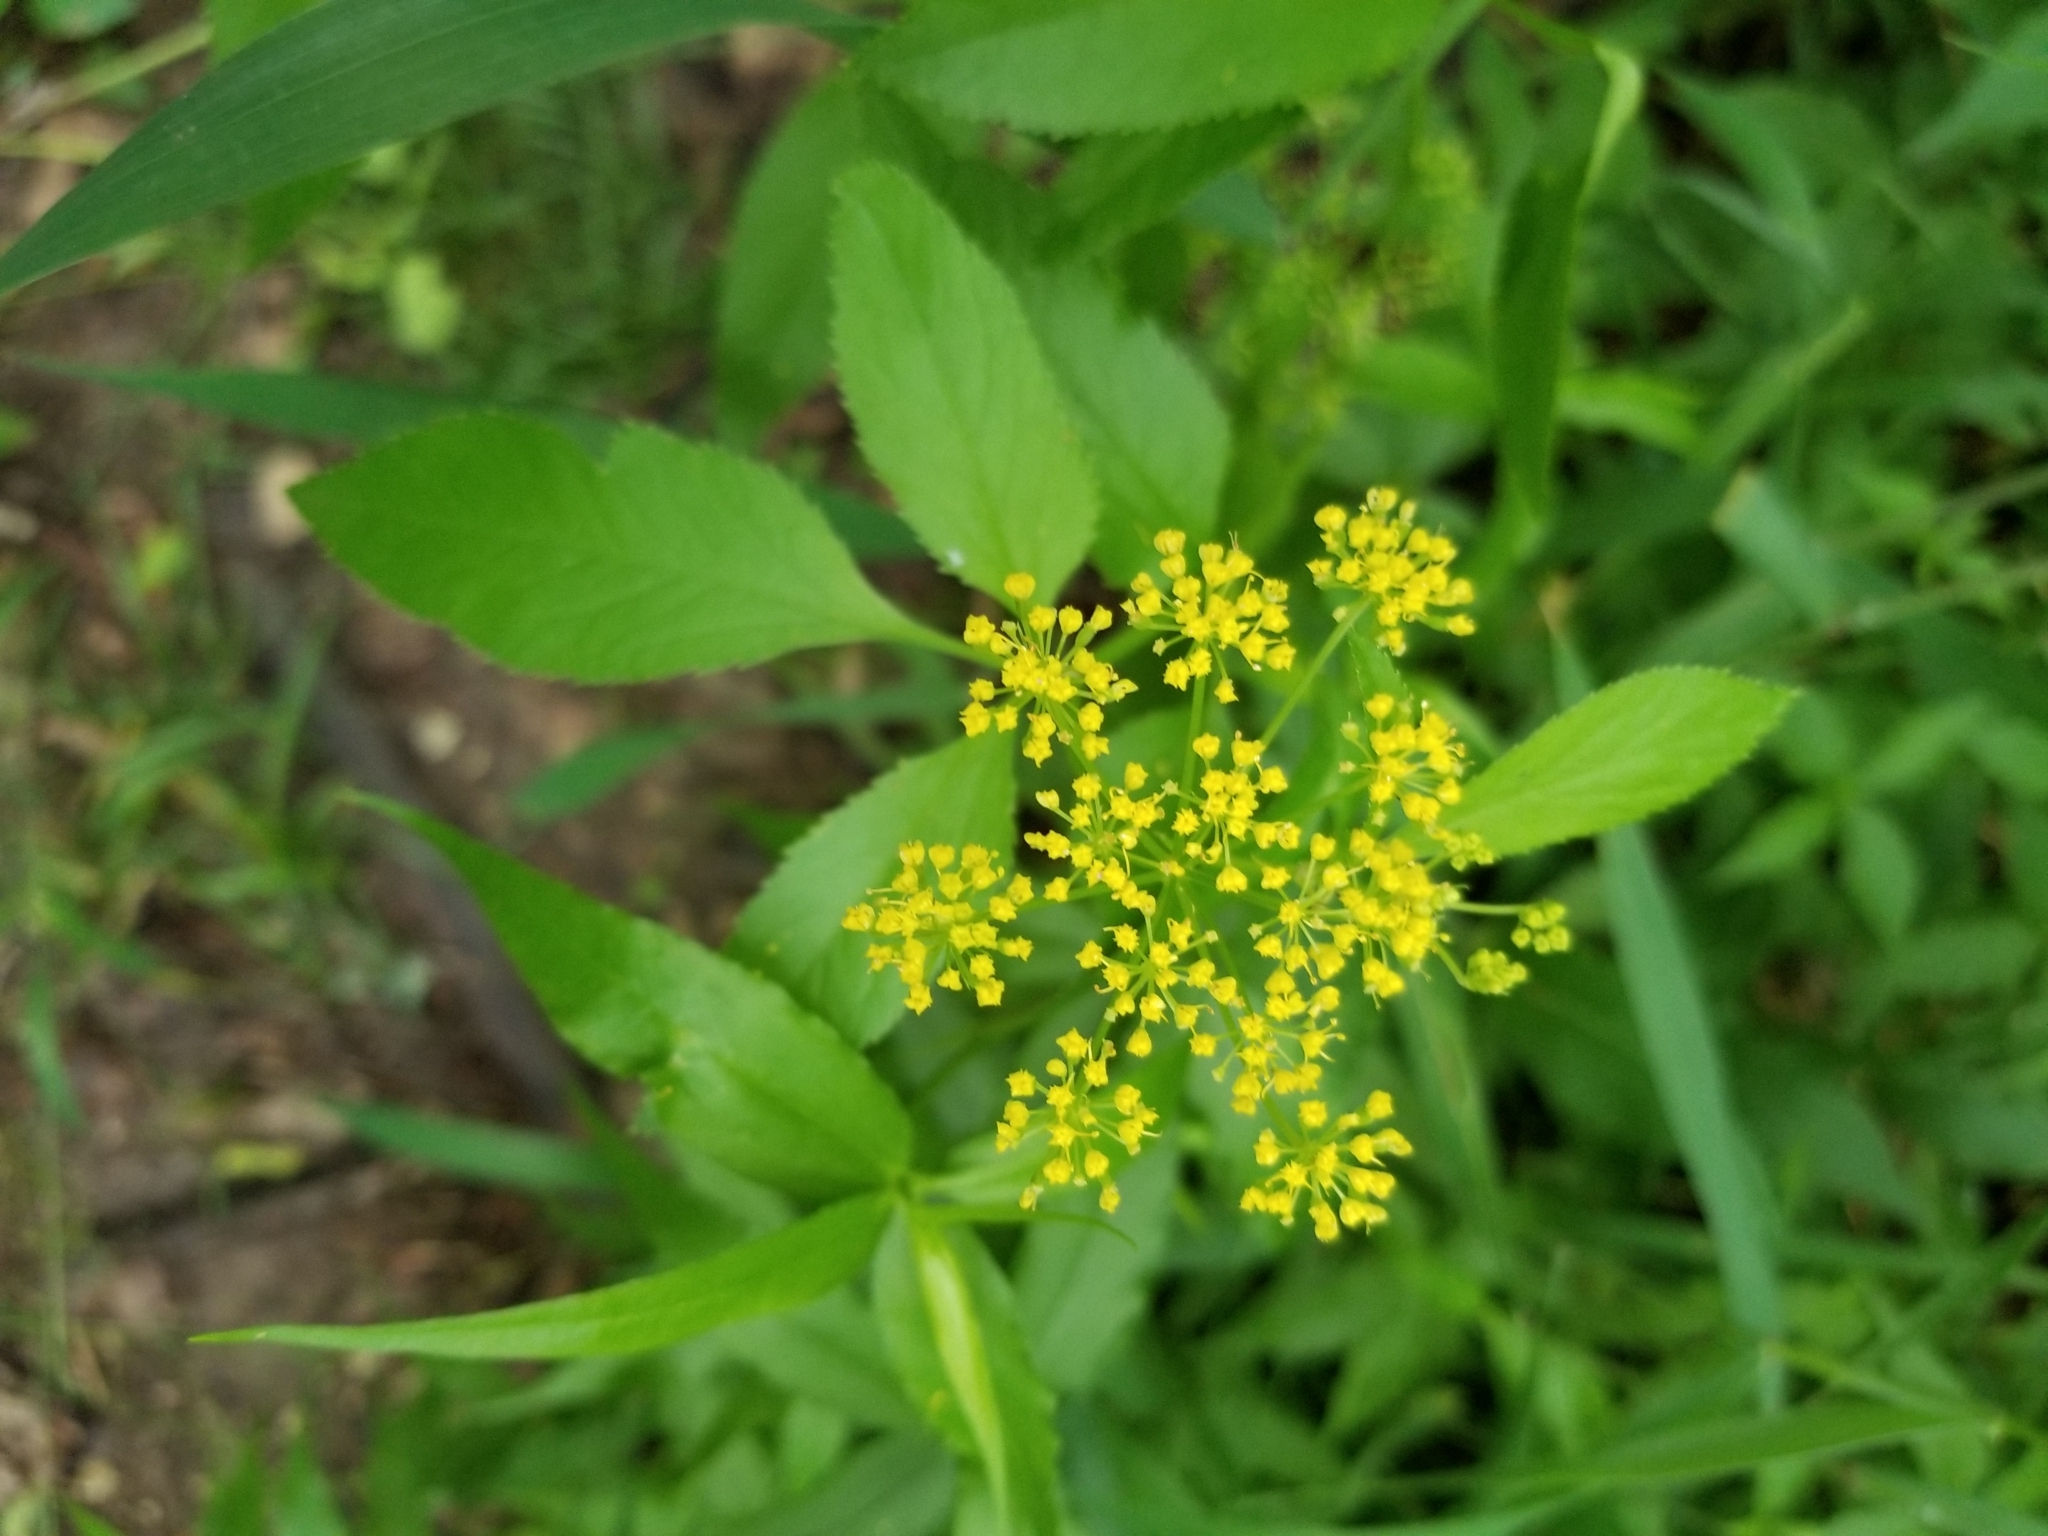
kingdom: Plantae
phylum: Tracheophyta
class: Magnoliopsida
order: Apiales
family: Apiaceae
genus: Zizia
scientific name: Zizia aurea
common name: Golden alexanders
